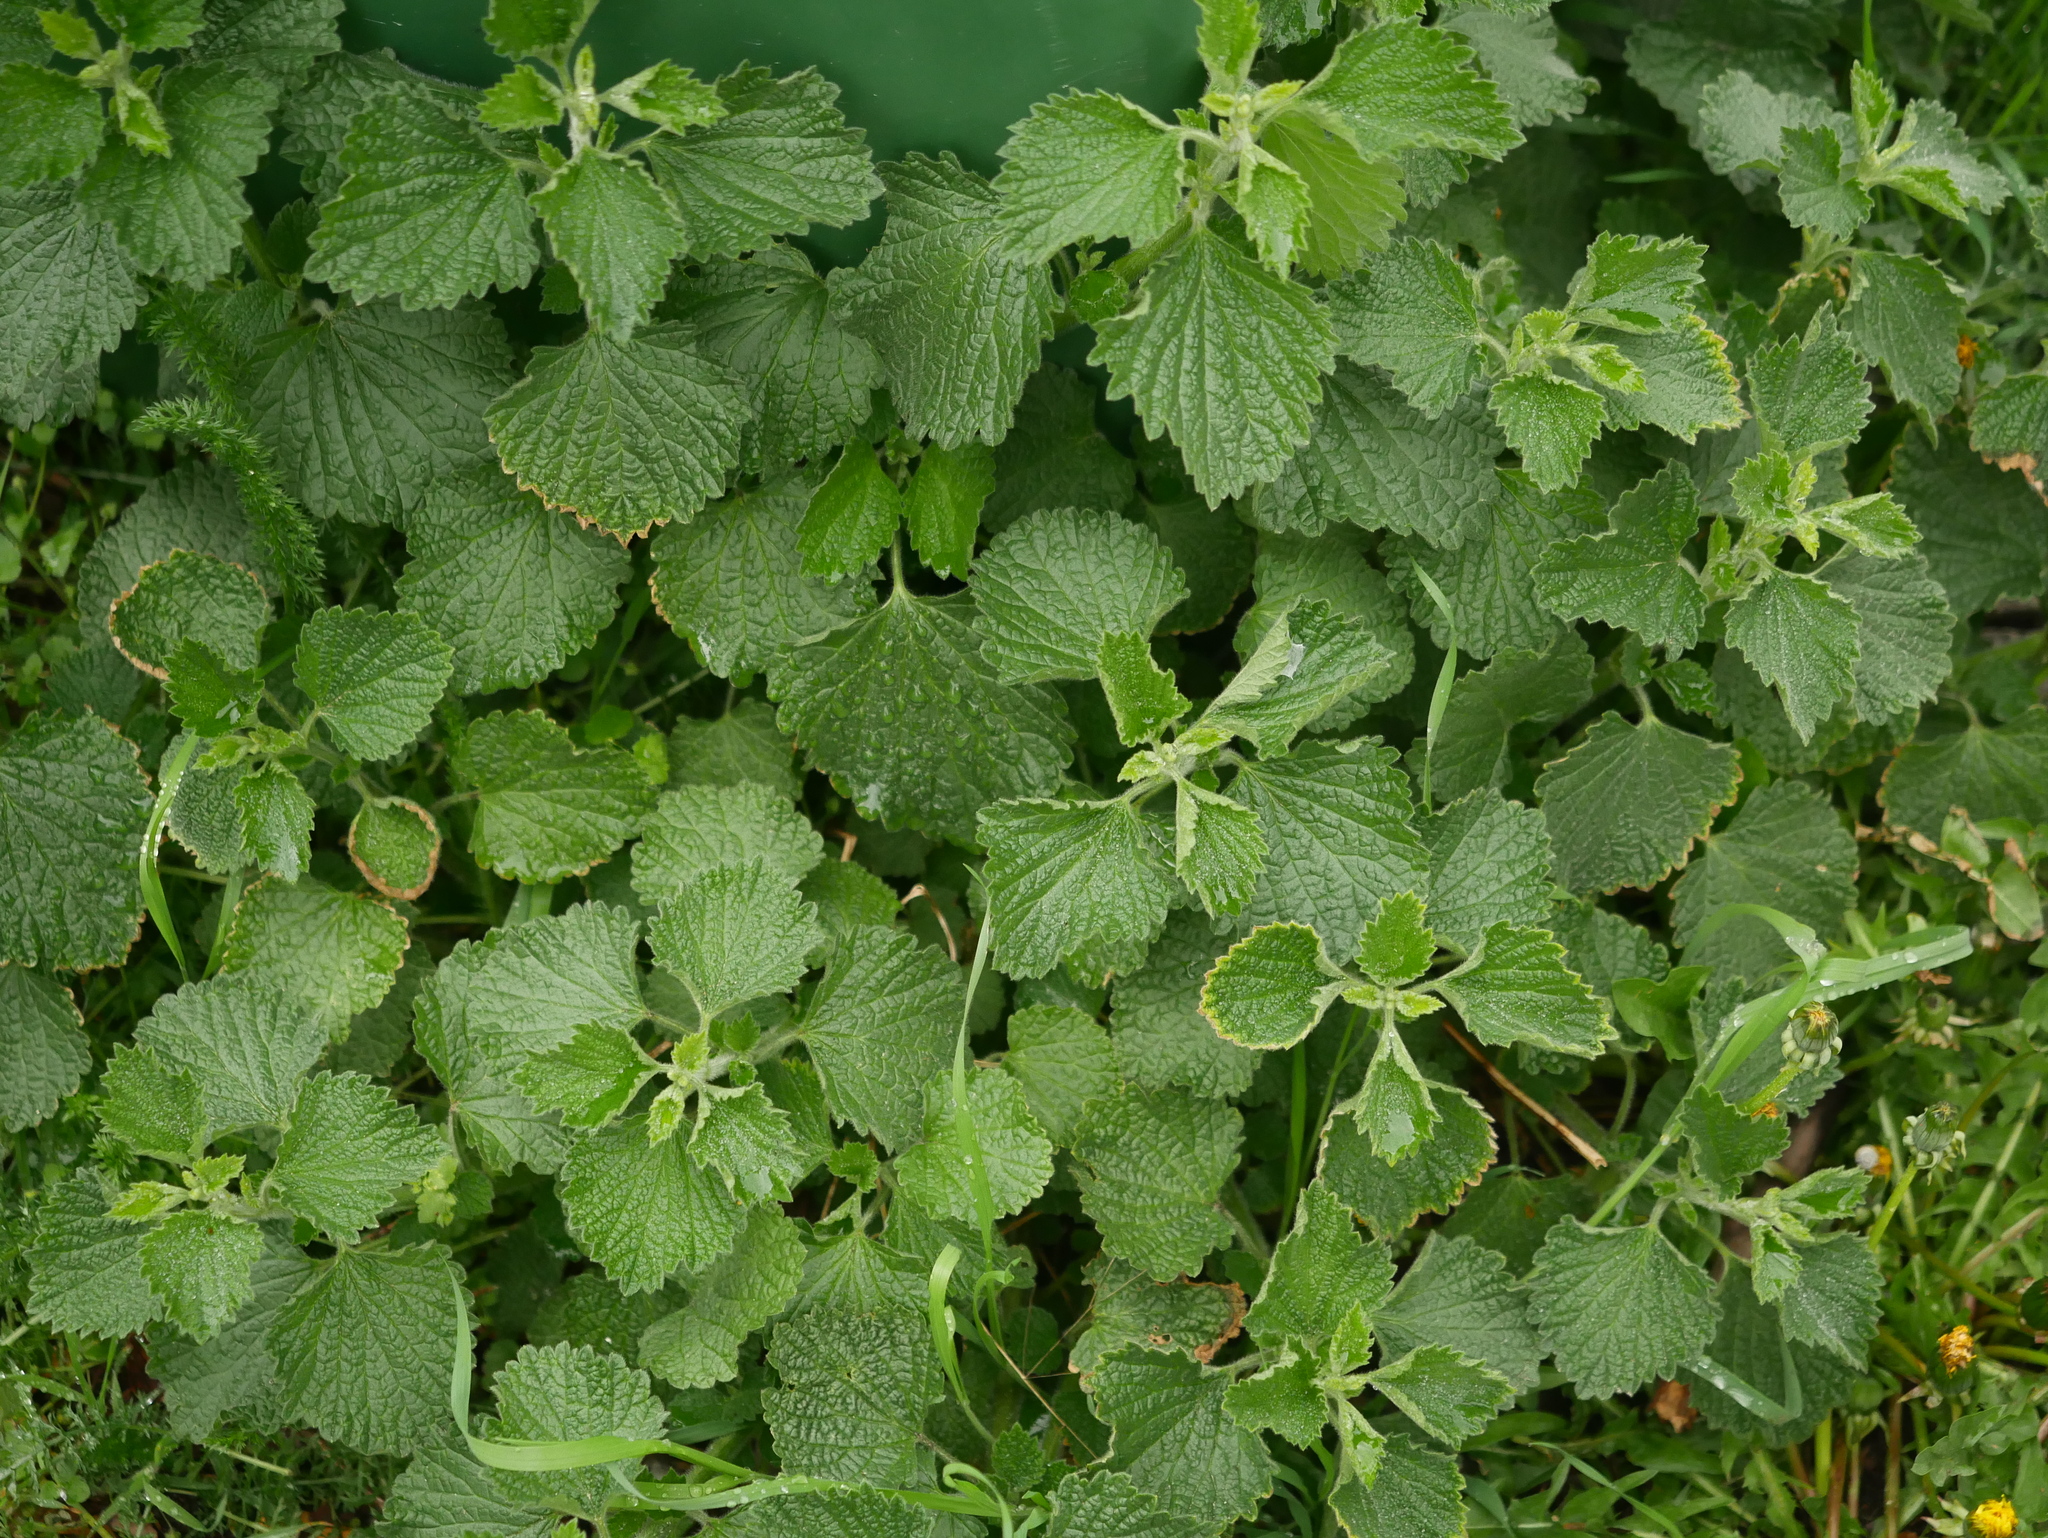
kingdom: Plantae
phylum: Tracheophyta
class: Magnoliopsida
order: Lamiales
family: Lamiaceae
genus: Ballota
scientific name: Ballota nigra
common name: Black horehound
